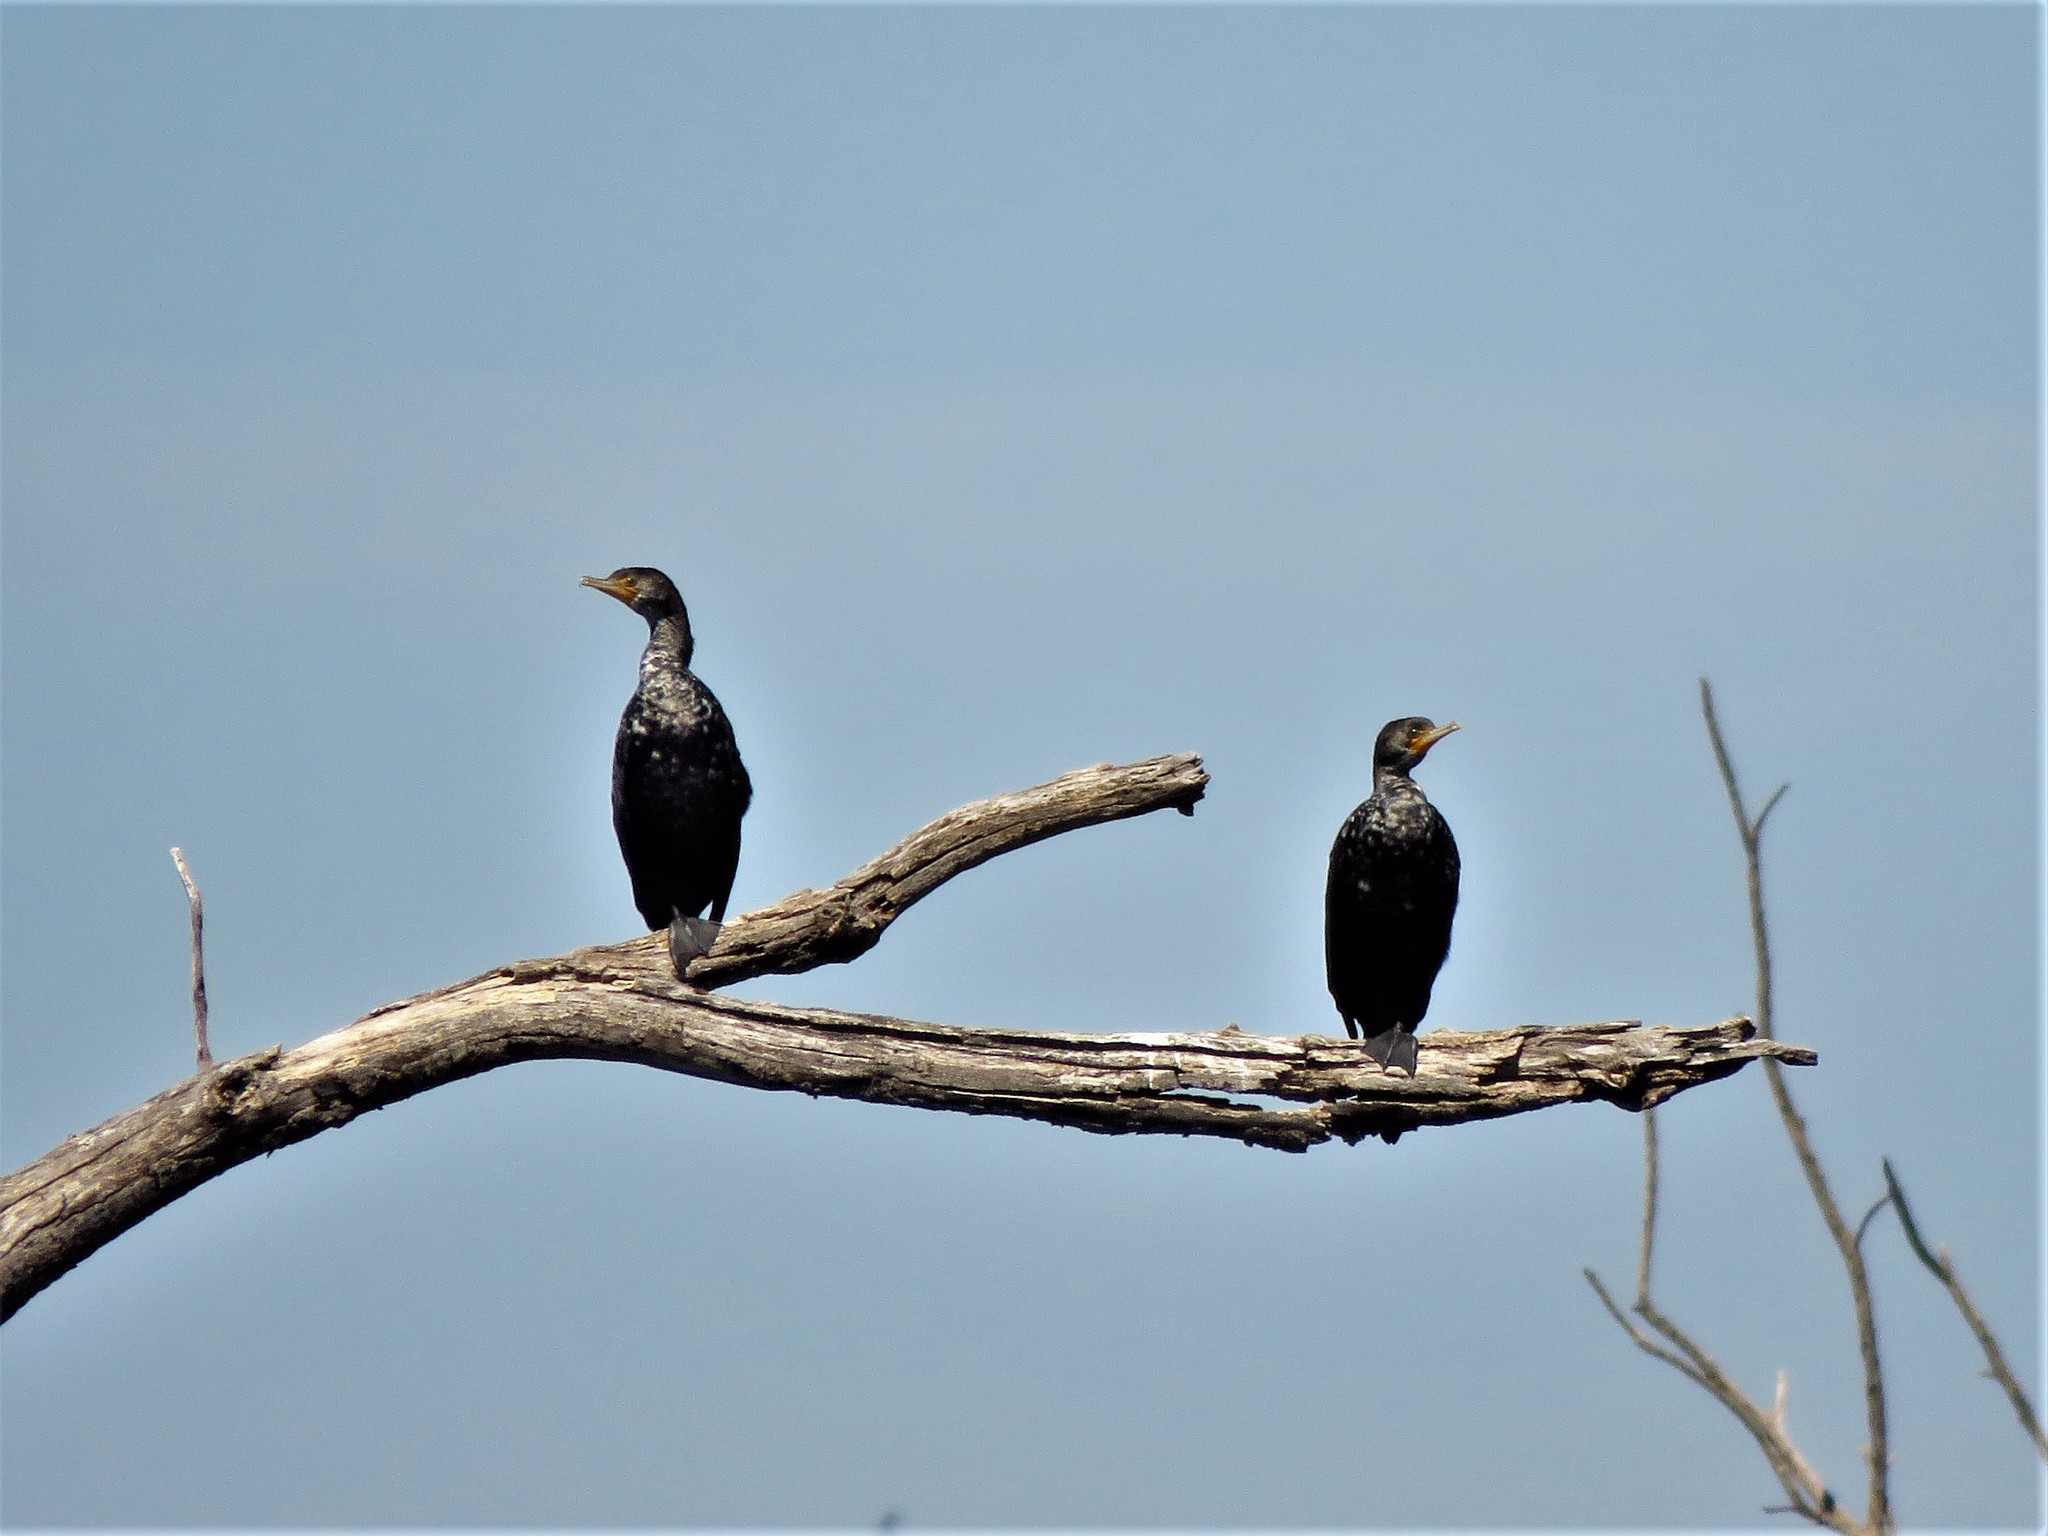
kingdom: Animalia
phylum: Chordata
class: Aves
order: Suliformes
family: Phalacrocoracidae
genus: Phalacrocorax
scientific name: Phalacrocorax auritus
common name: Double-crested cormorant
